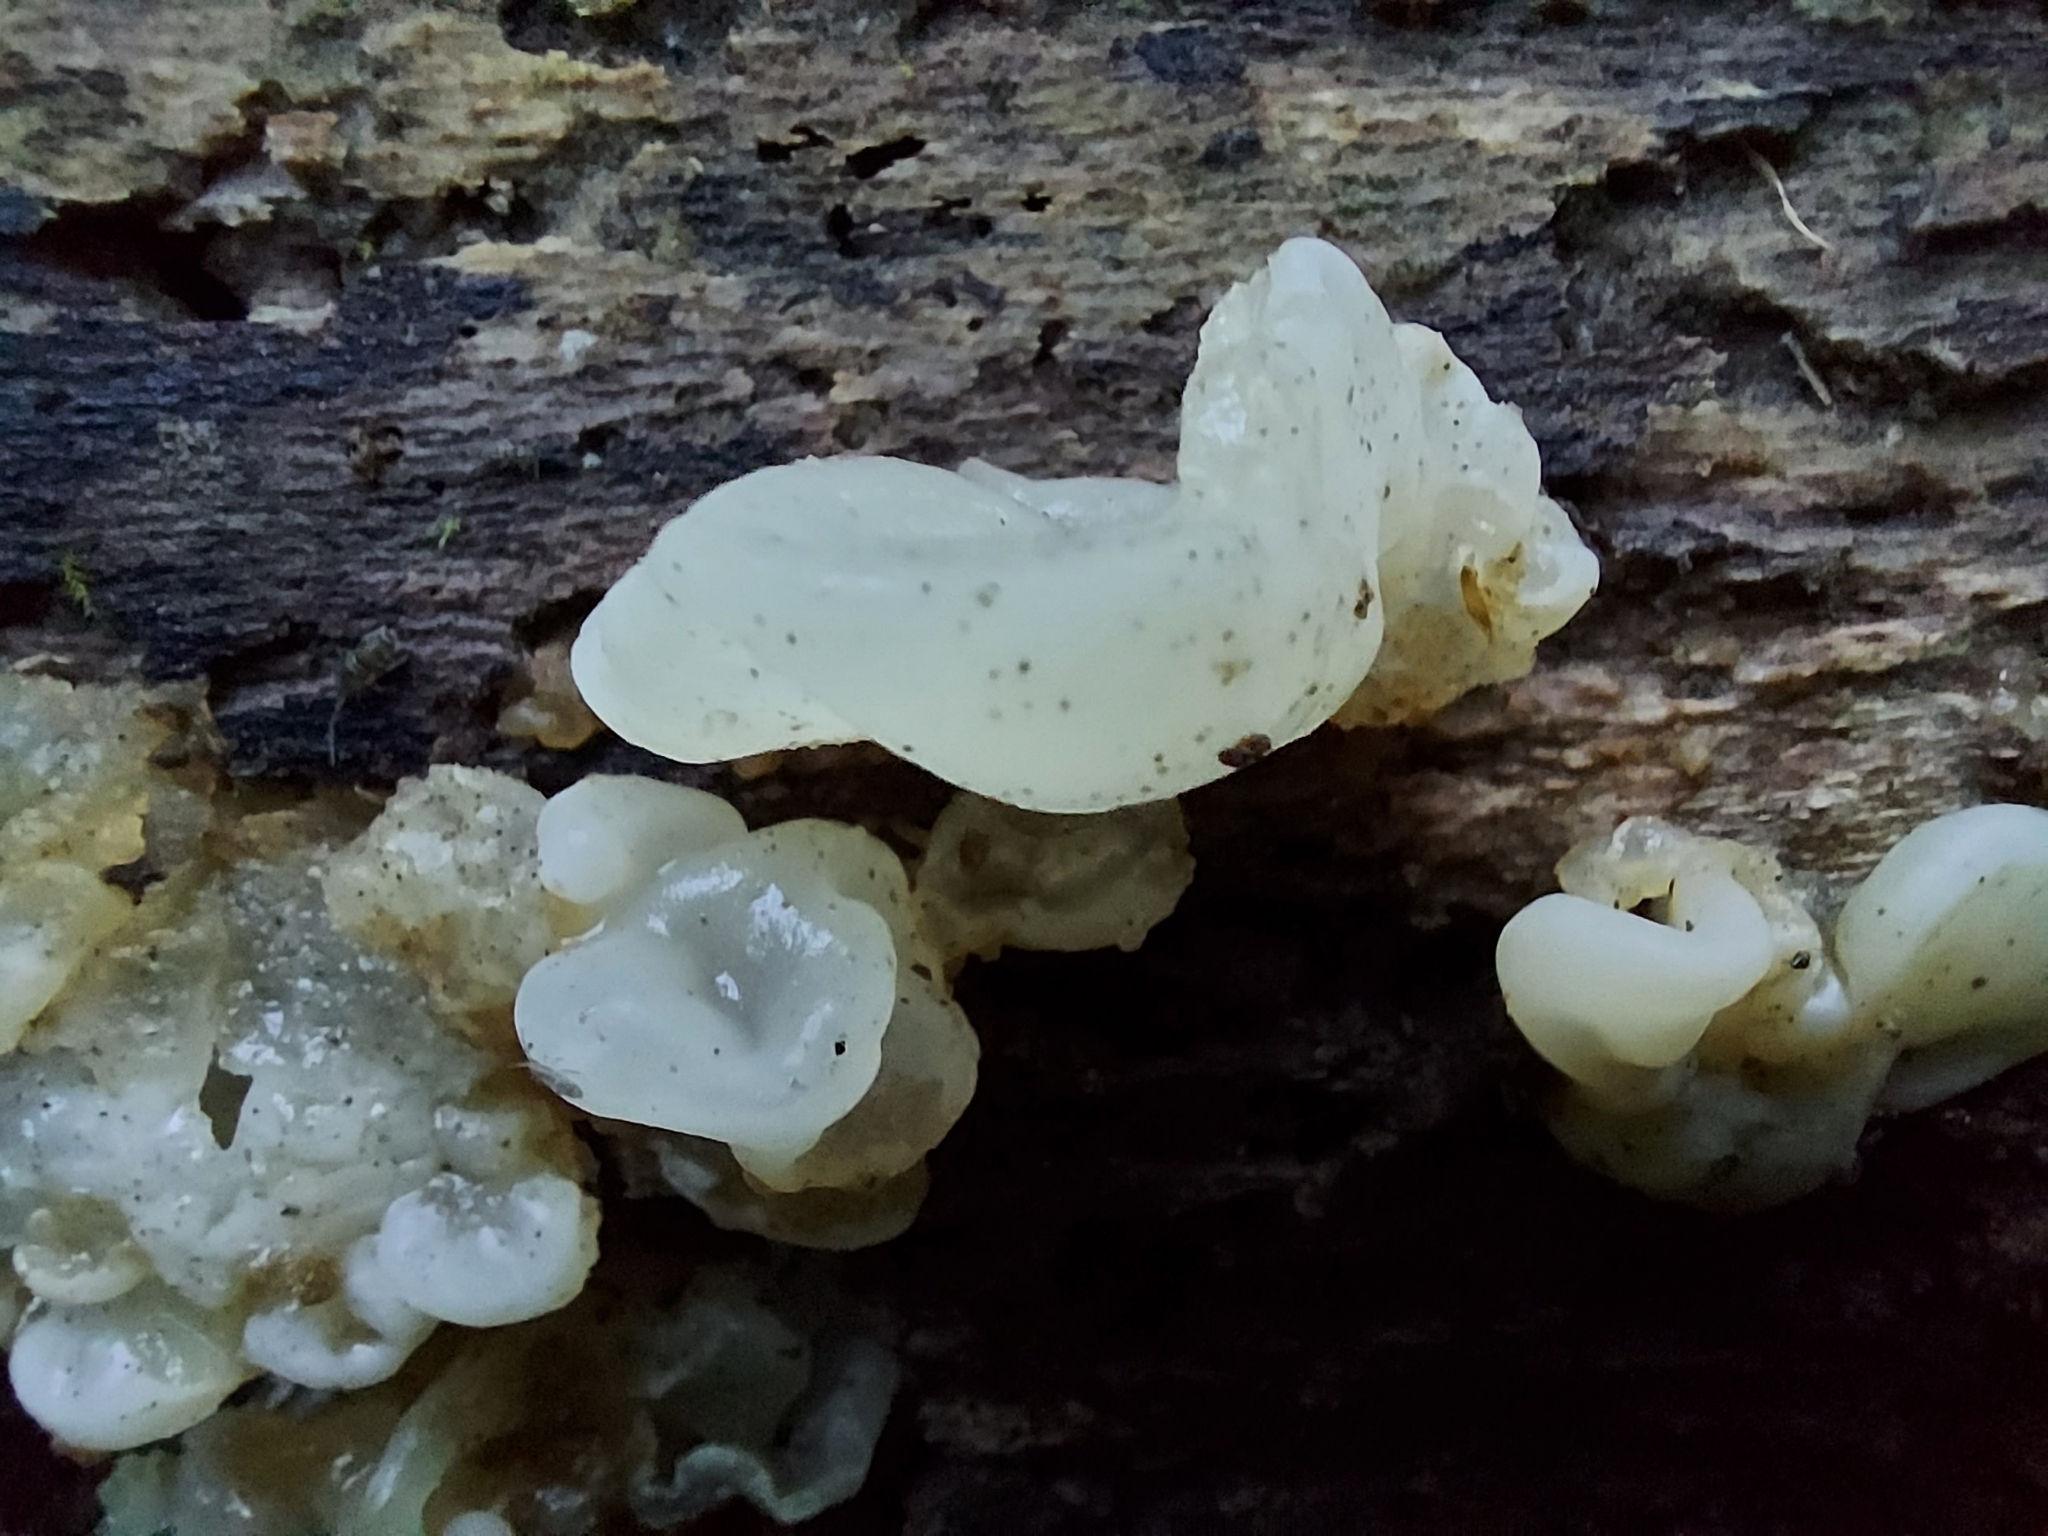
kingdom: Fungi
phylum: Basidiomycota
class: Agaricomycetes
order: Auriculariales
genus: Ductifera
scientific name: Ductifera pululahuana
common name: White jelly fungus
